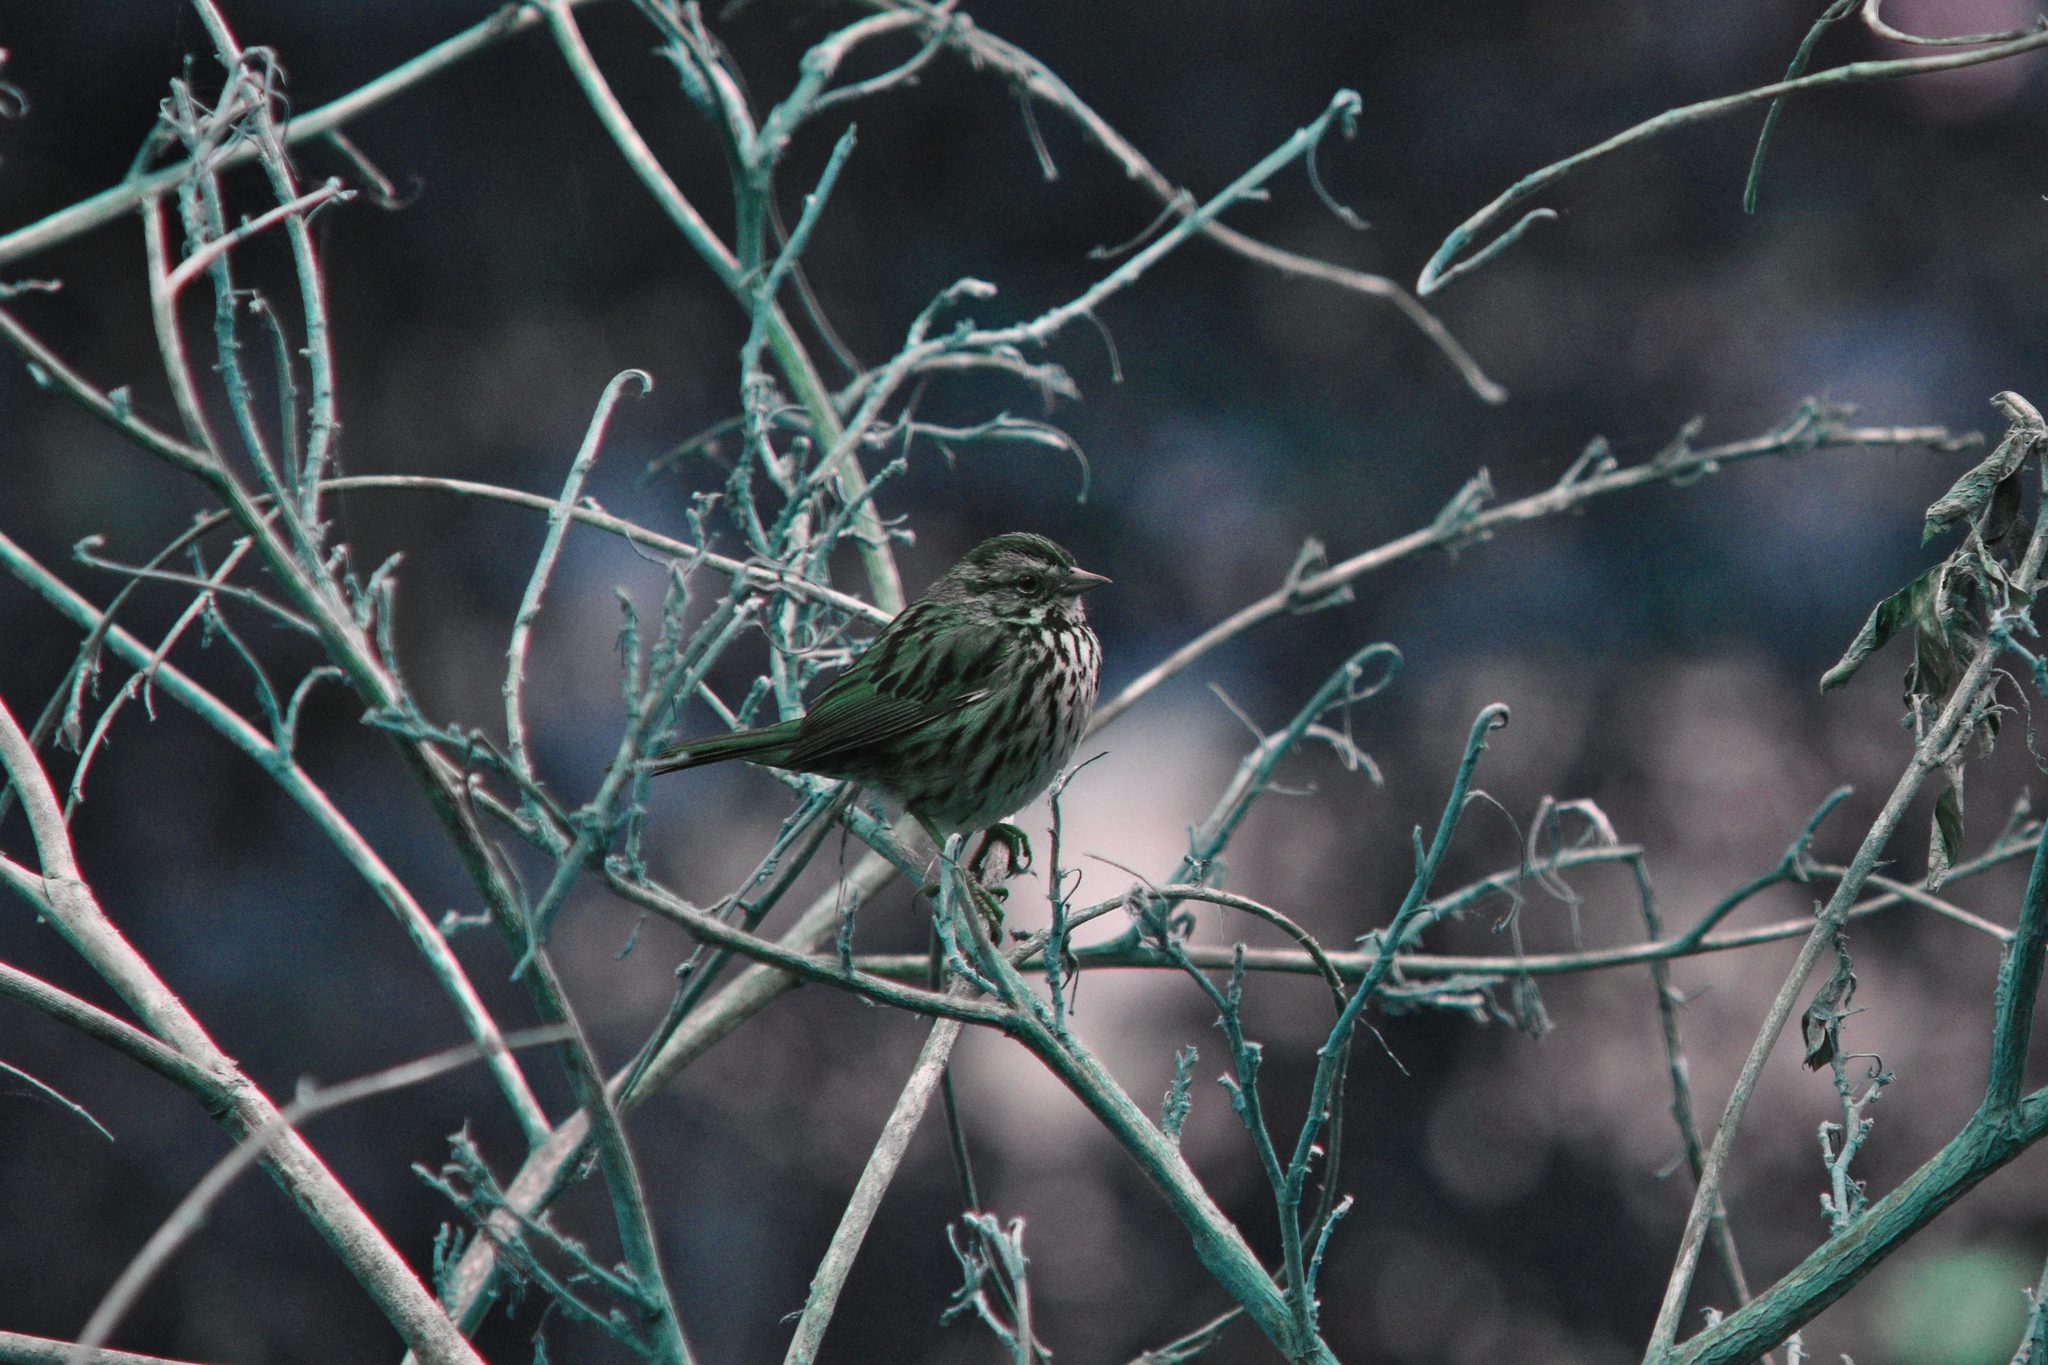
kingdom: Animalia
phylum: Chordata
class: Aves
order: Passeriformes
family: Passerellidae
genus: Melospiza
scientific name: Melospiza melodia
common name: Song sparrow
